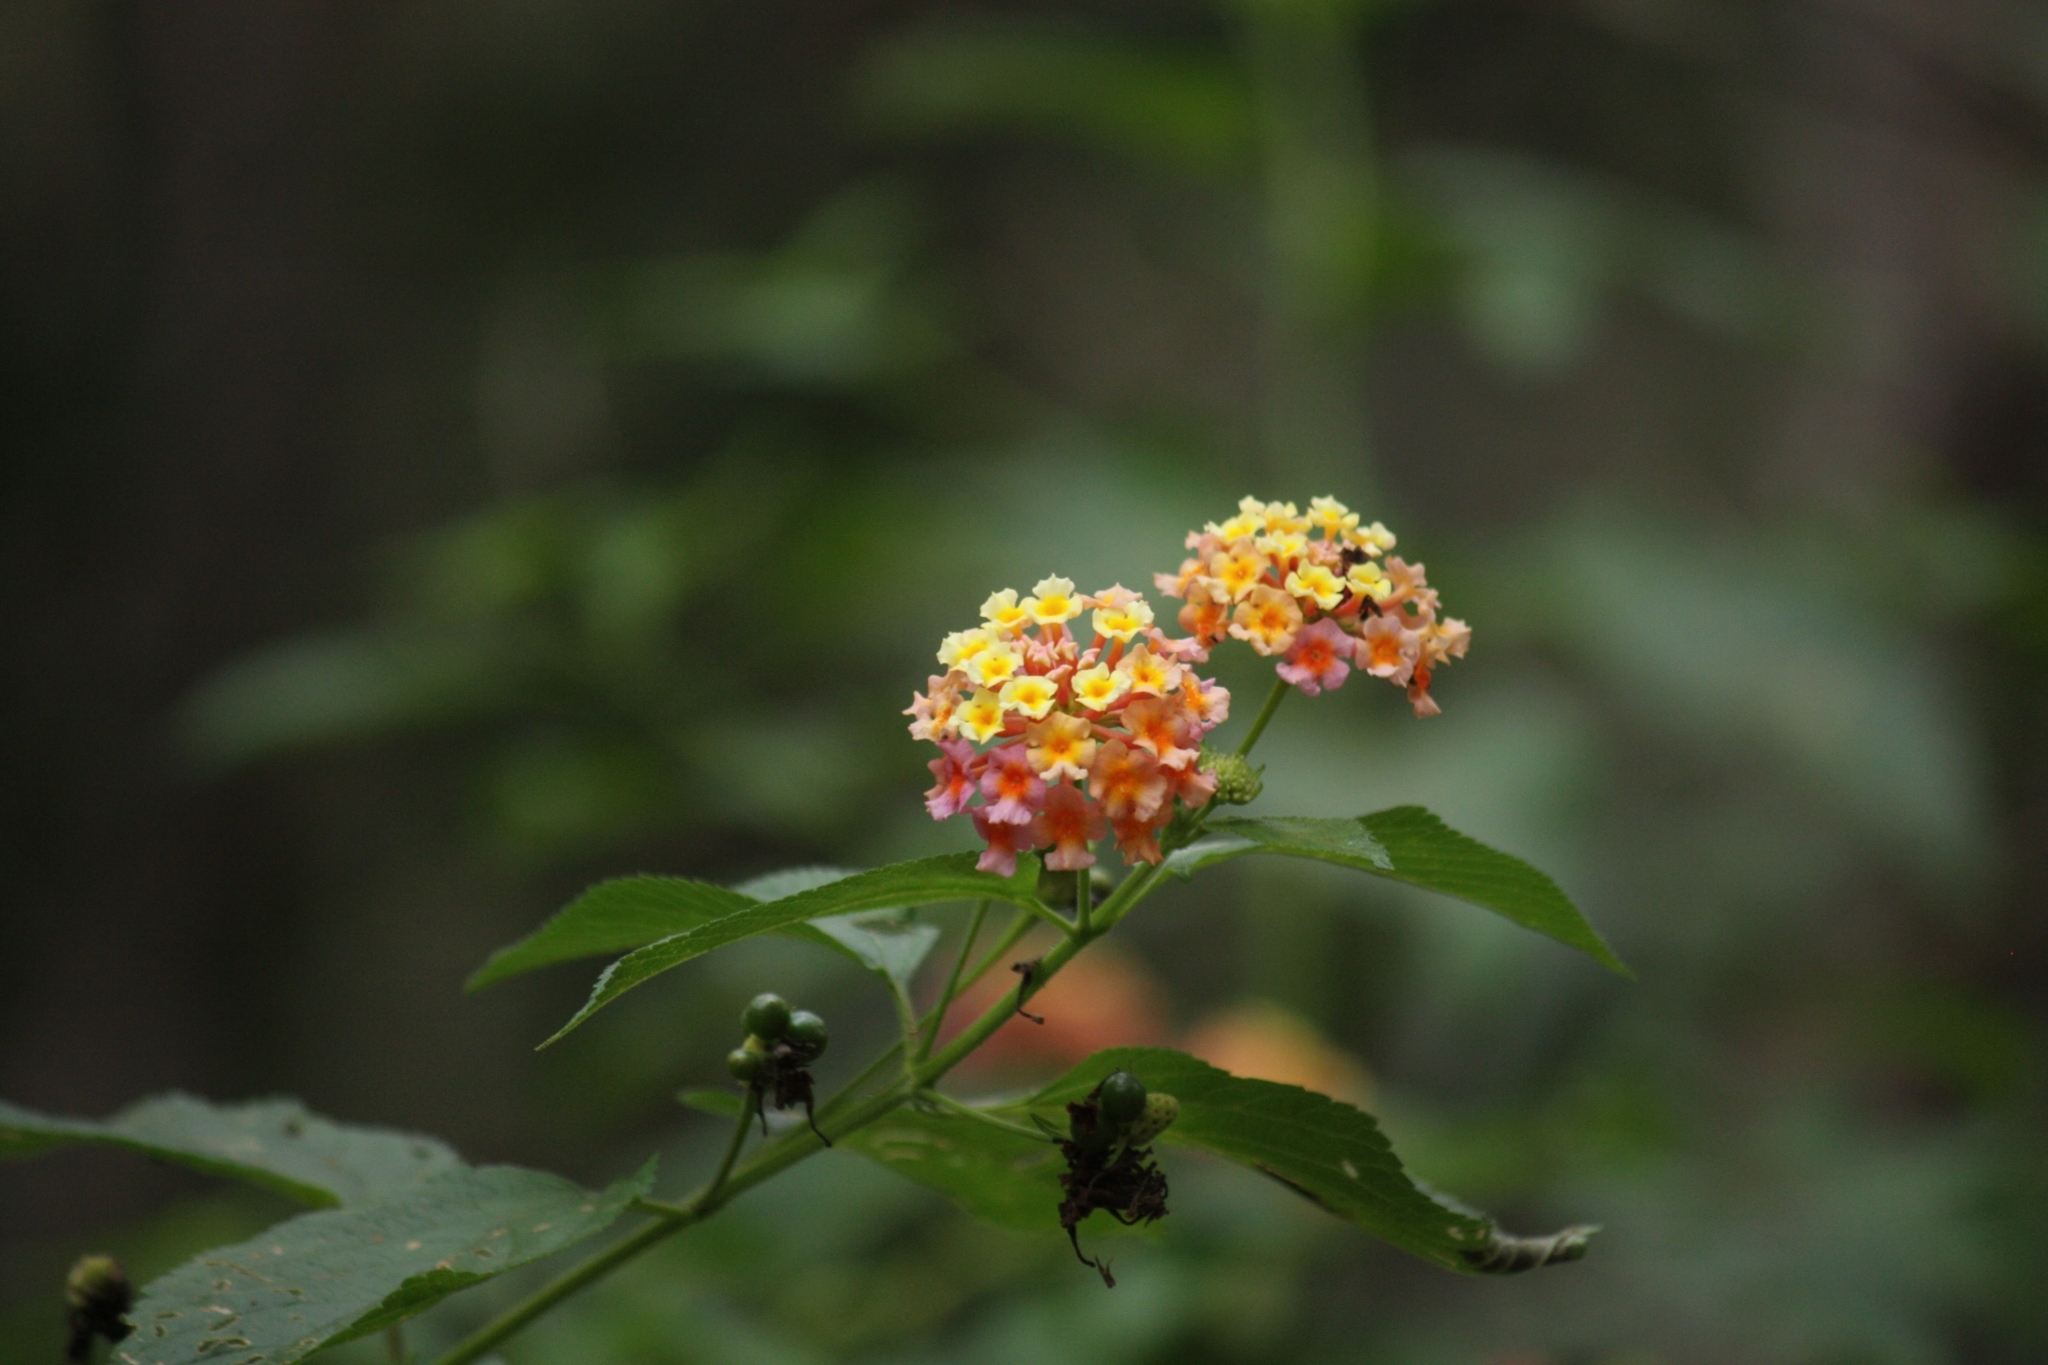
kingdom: Plantae
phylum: Tracheophyta
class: Magnoliopsida
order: Lamiales
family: Verbenaceae
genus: Lantana
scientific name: Lantana camara
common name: Lantana
